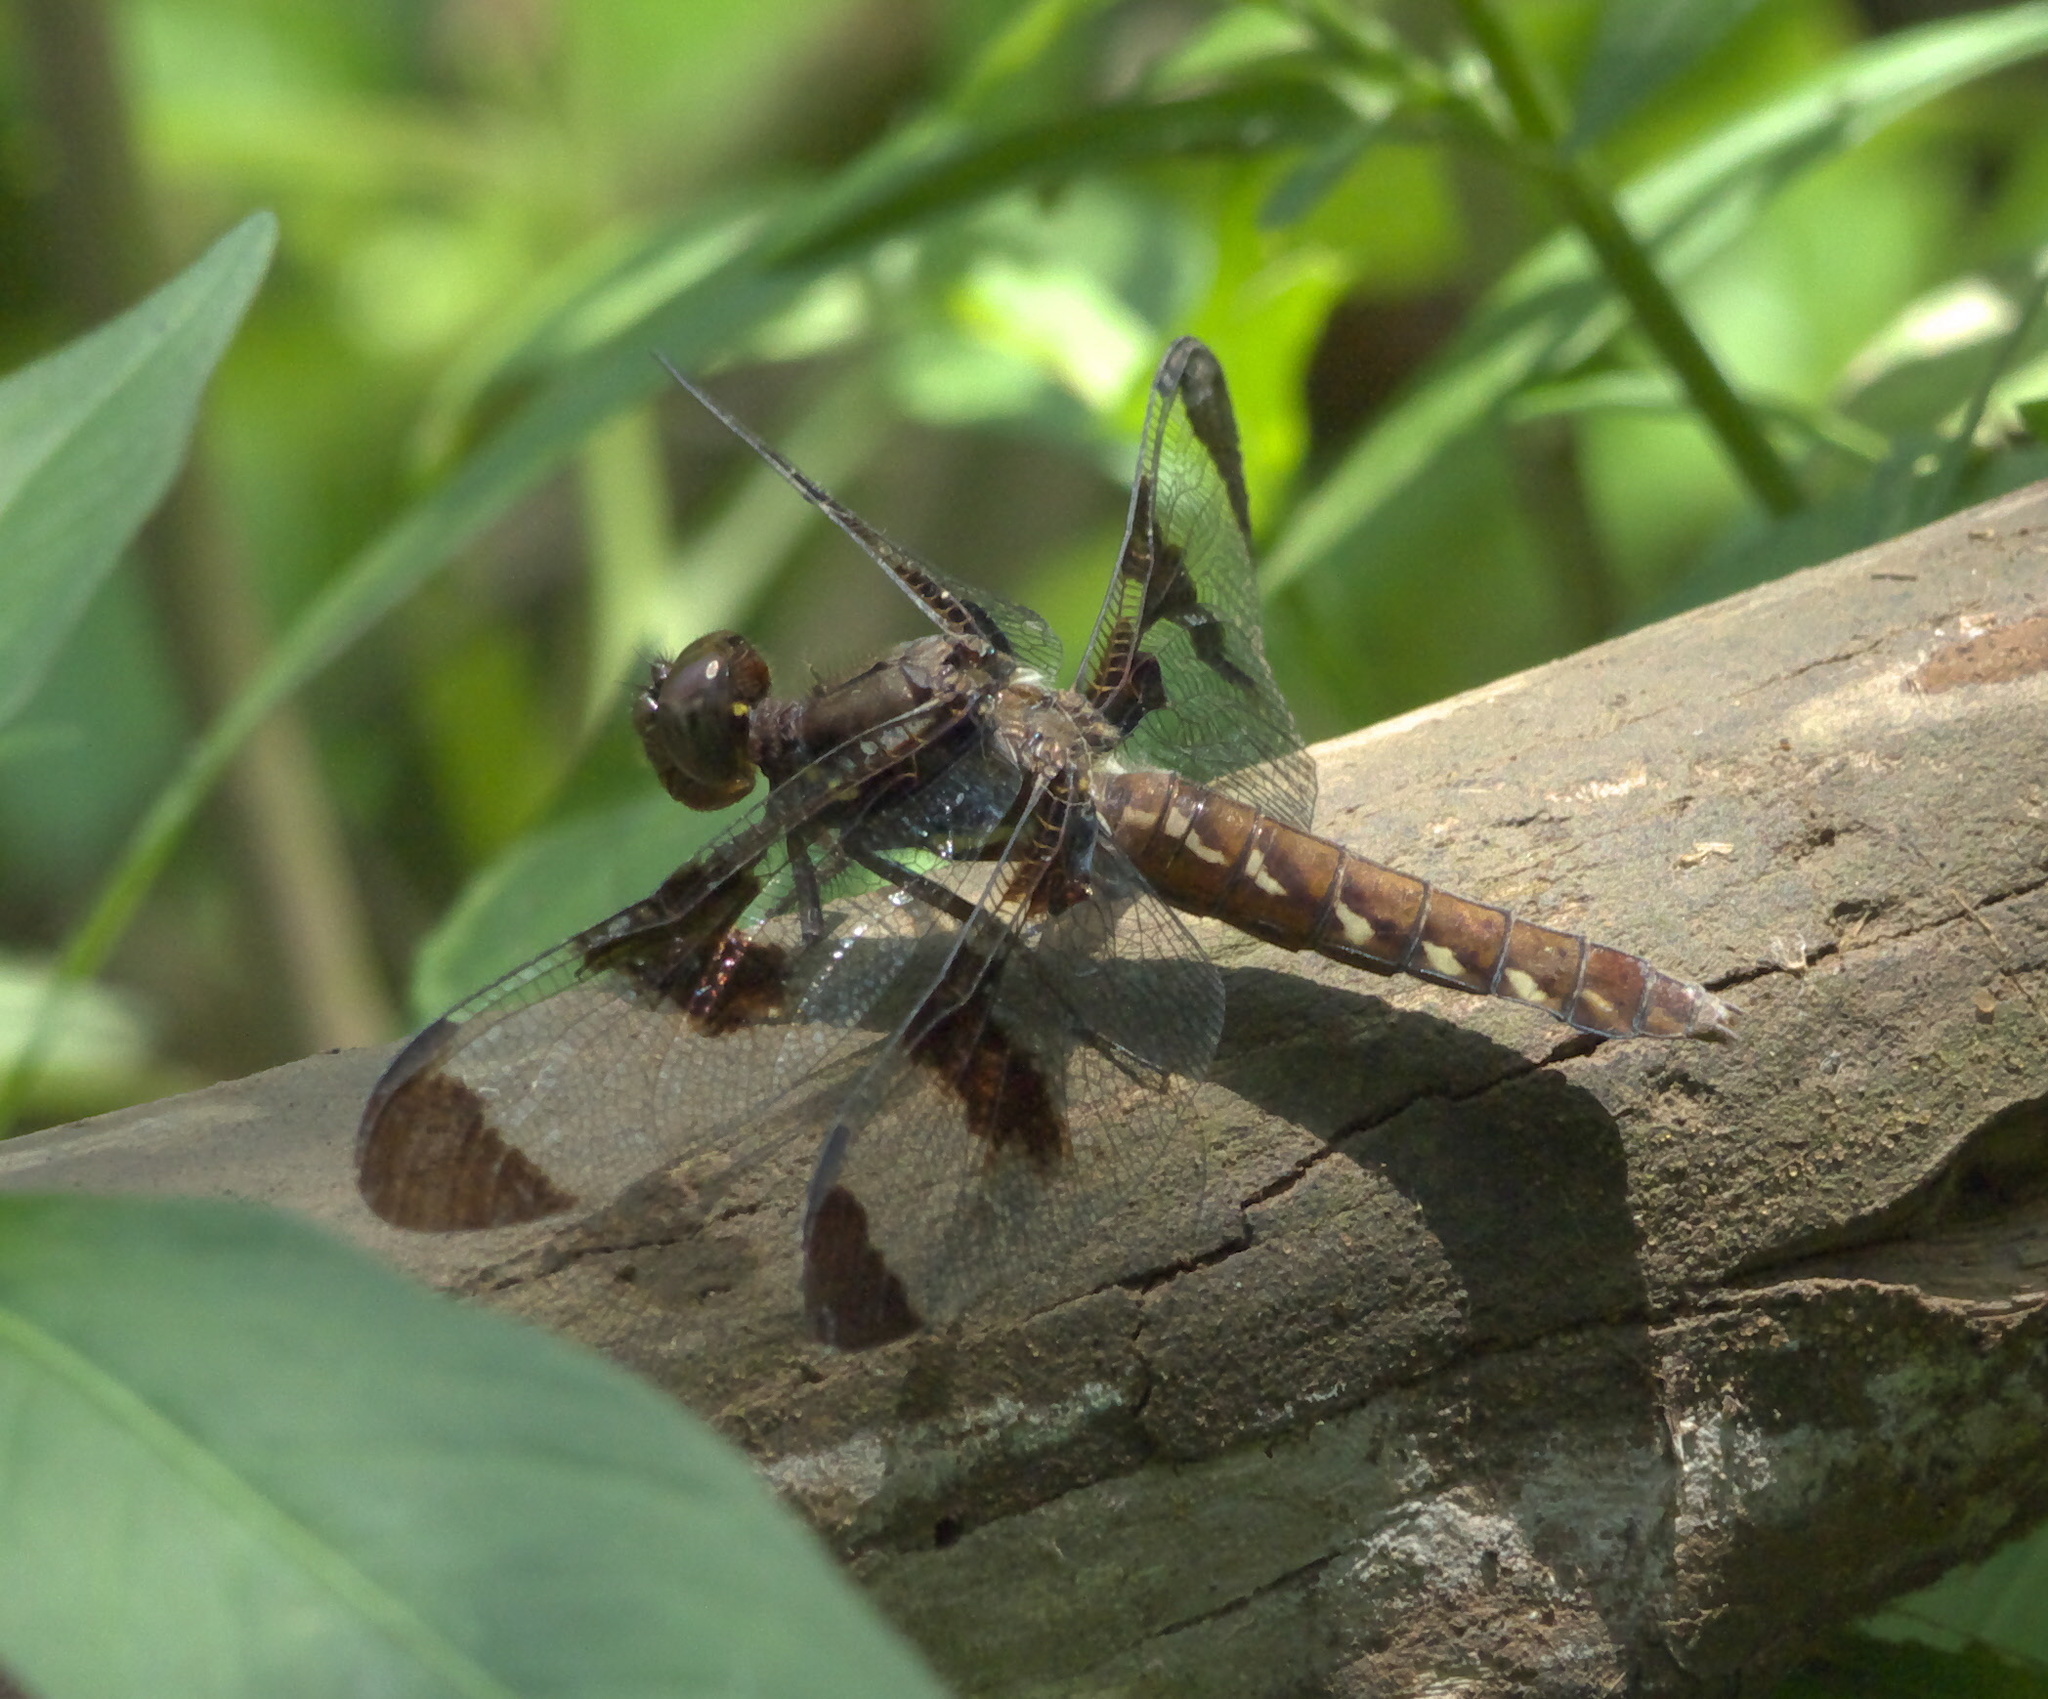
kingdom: Animalia
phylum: Arthropoda
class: Insecta
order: Odonata
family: Libellulidae
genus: Plathemis
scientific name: Plathemis lydia
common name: Common whitetail
